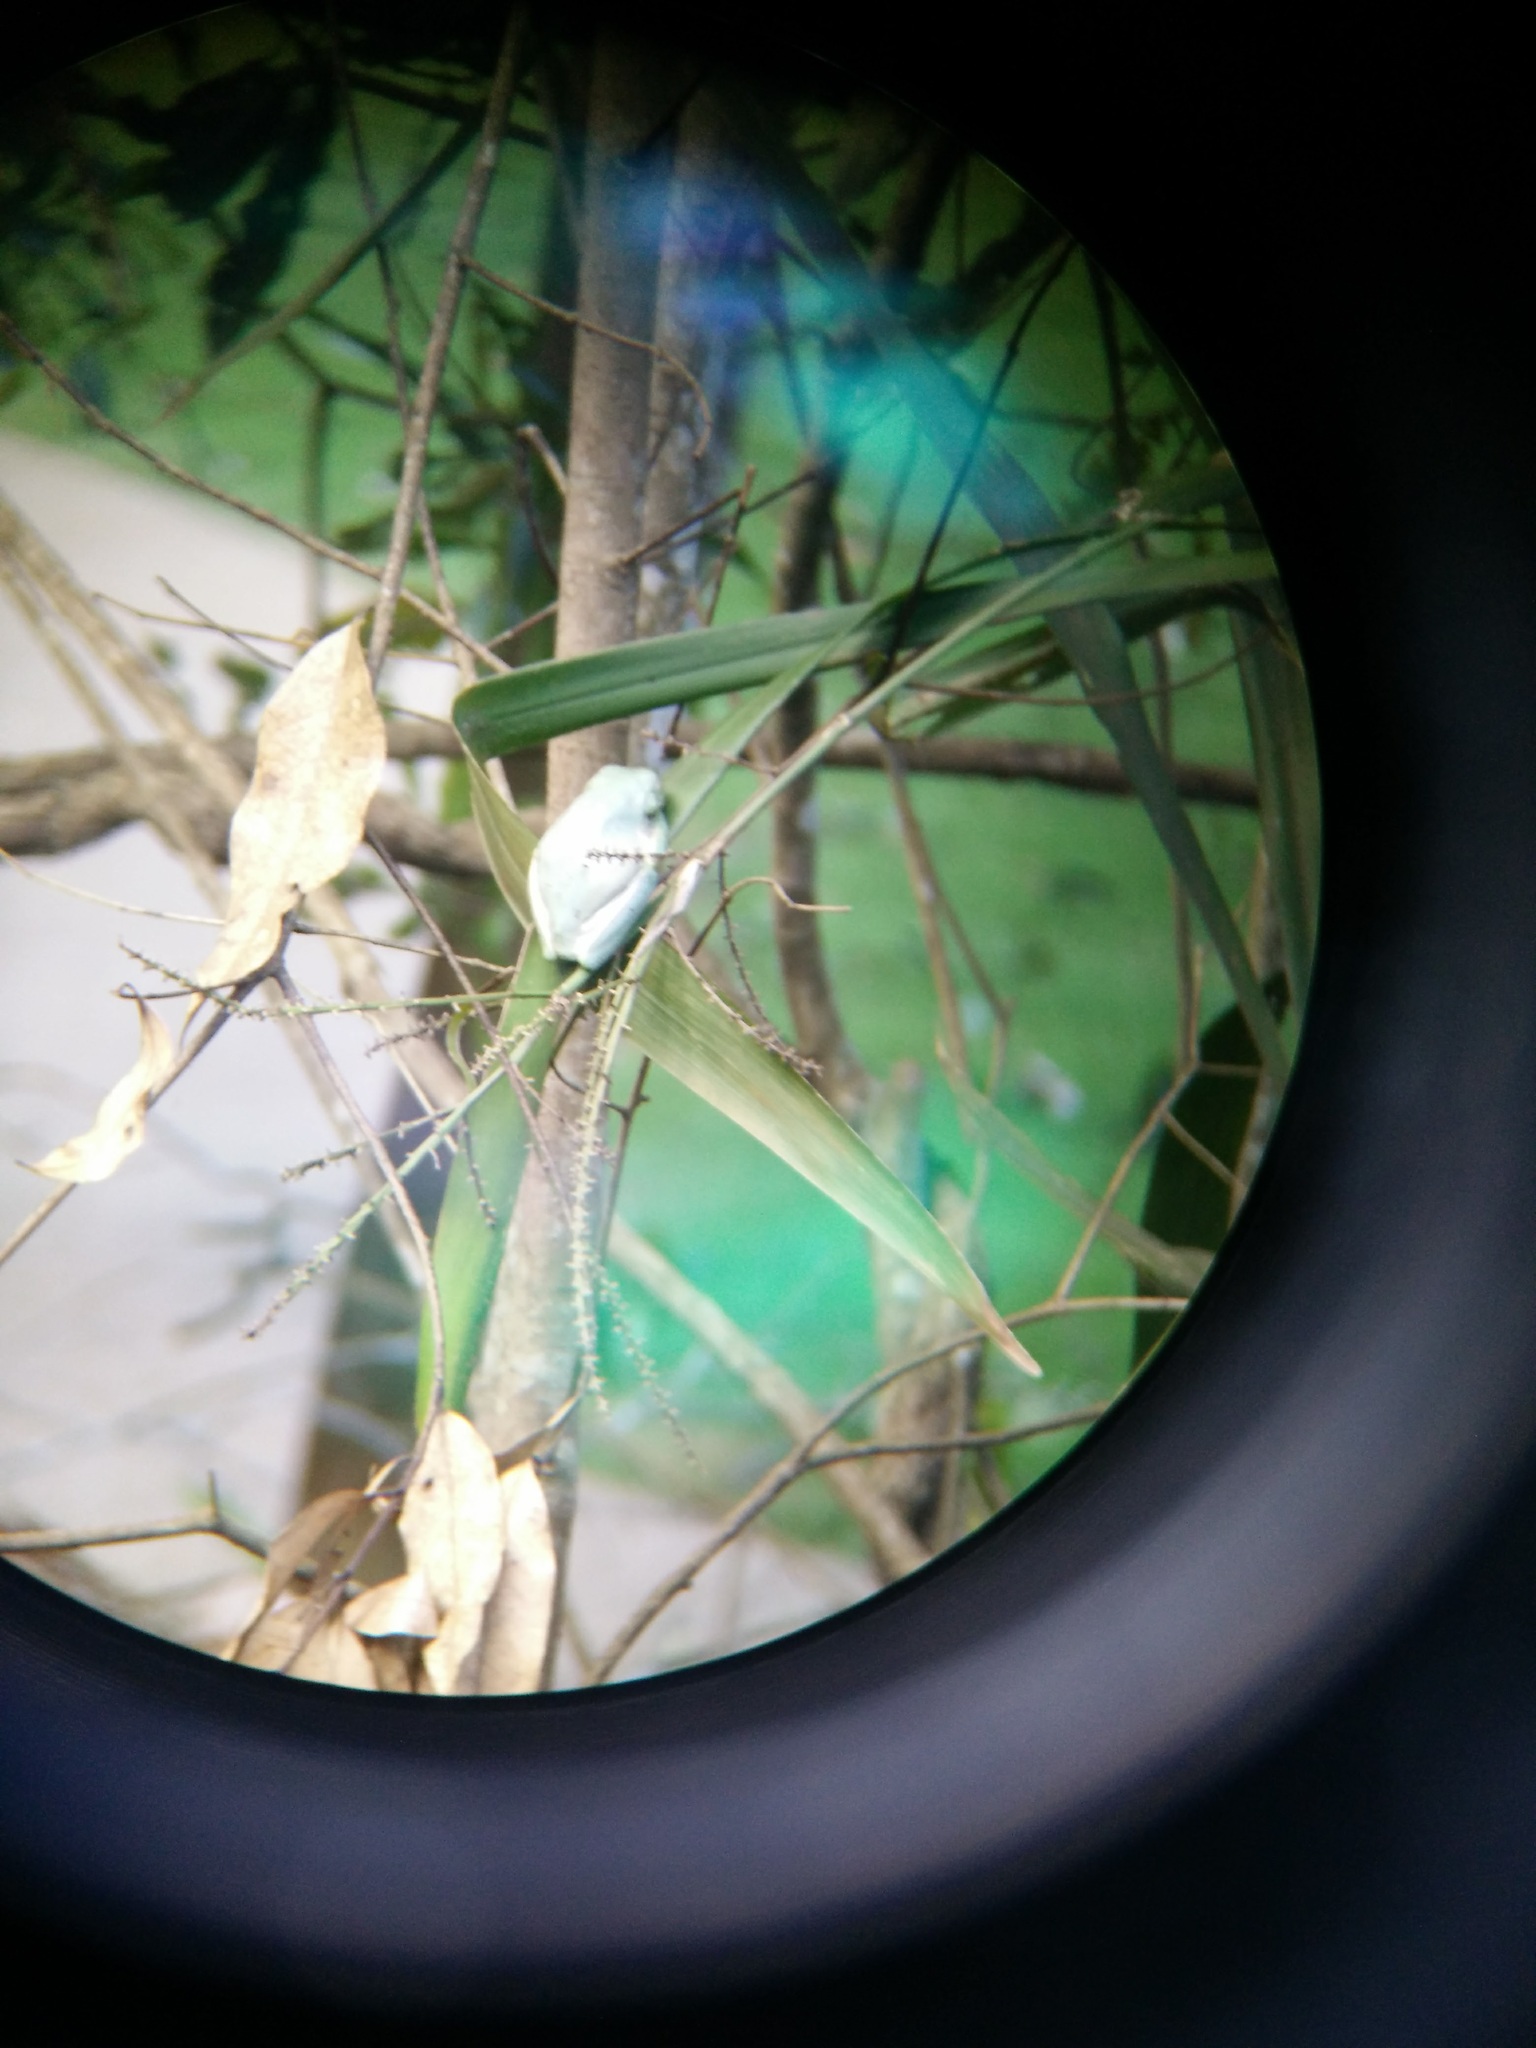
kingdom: Animalia
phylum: Chordata
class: Amphibia
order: Anura
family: Pelodryadidae
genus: Ranoidea
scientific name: Ranoidea caerulea
